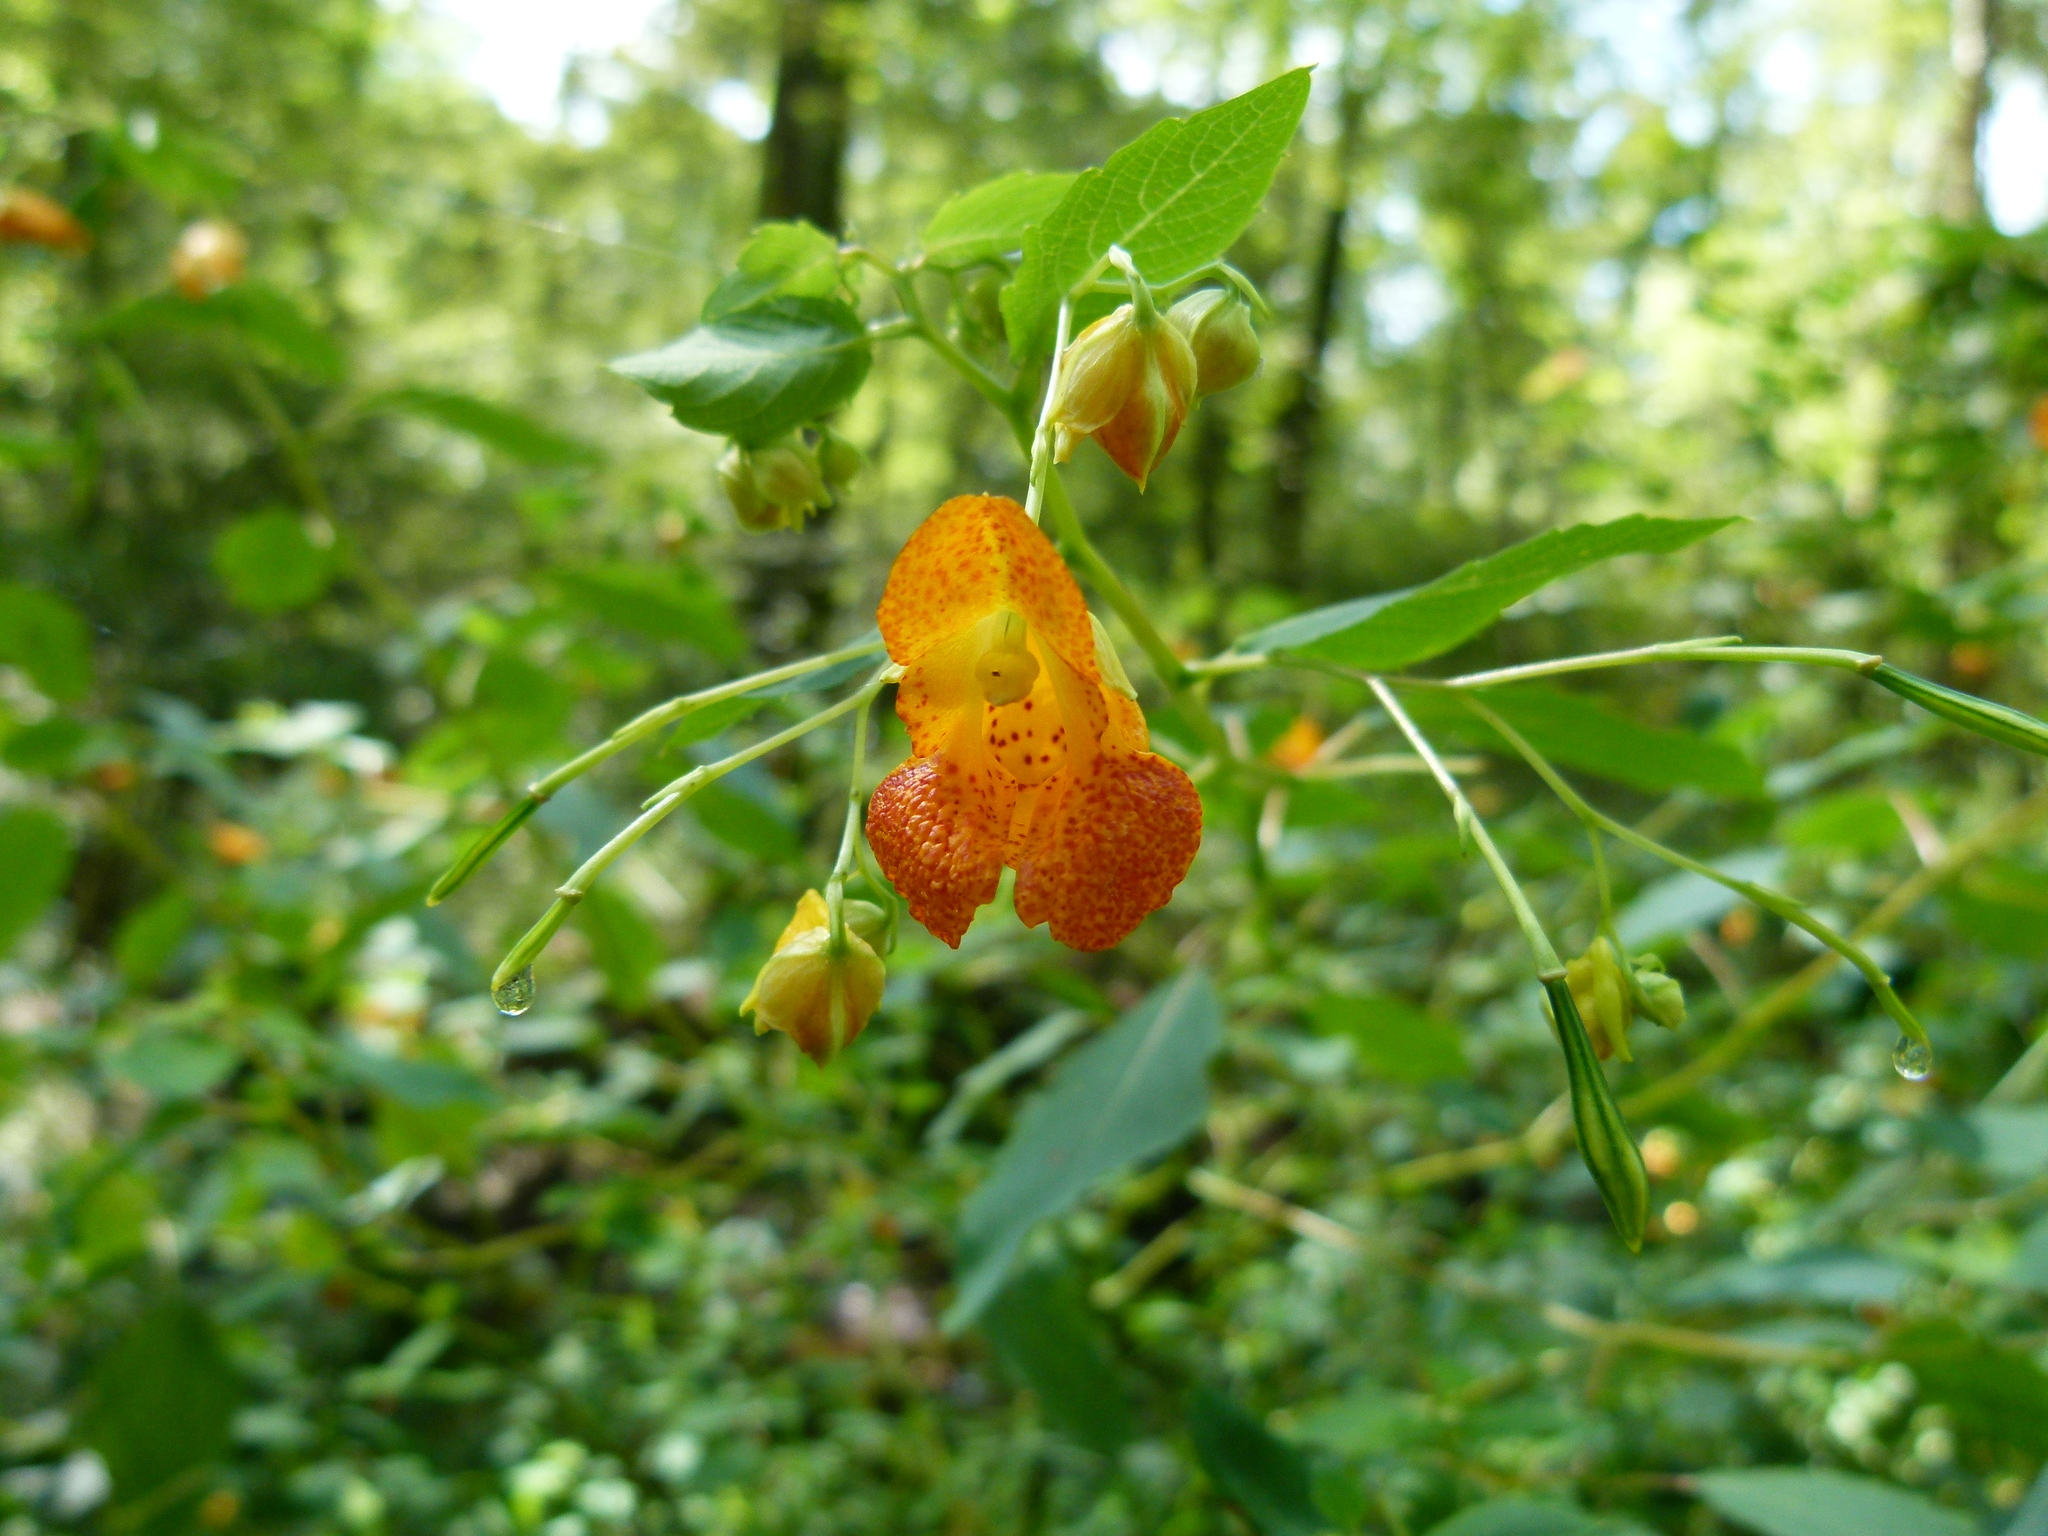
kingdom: Plantae
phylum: Tracheophyta
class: Magnoliopsida
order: Ericales
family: Balsaminaceae
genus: Impatiens
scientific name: Impatiens capensis
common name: Orange balsam
